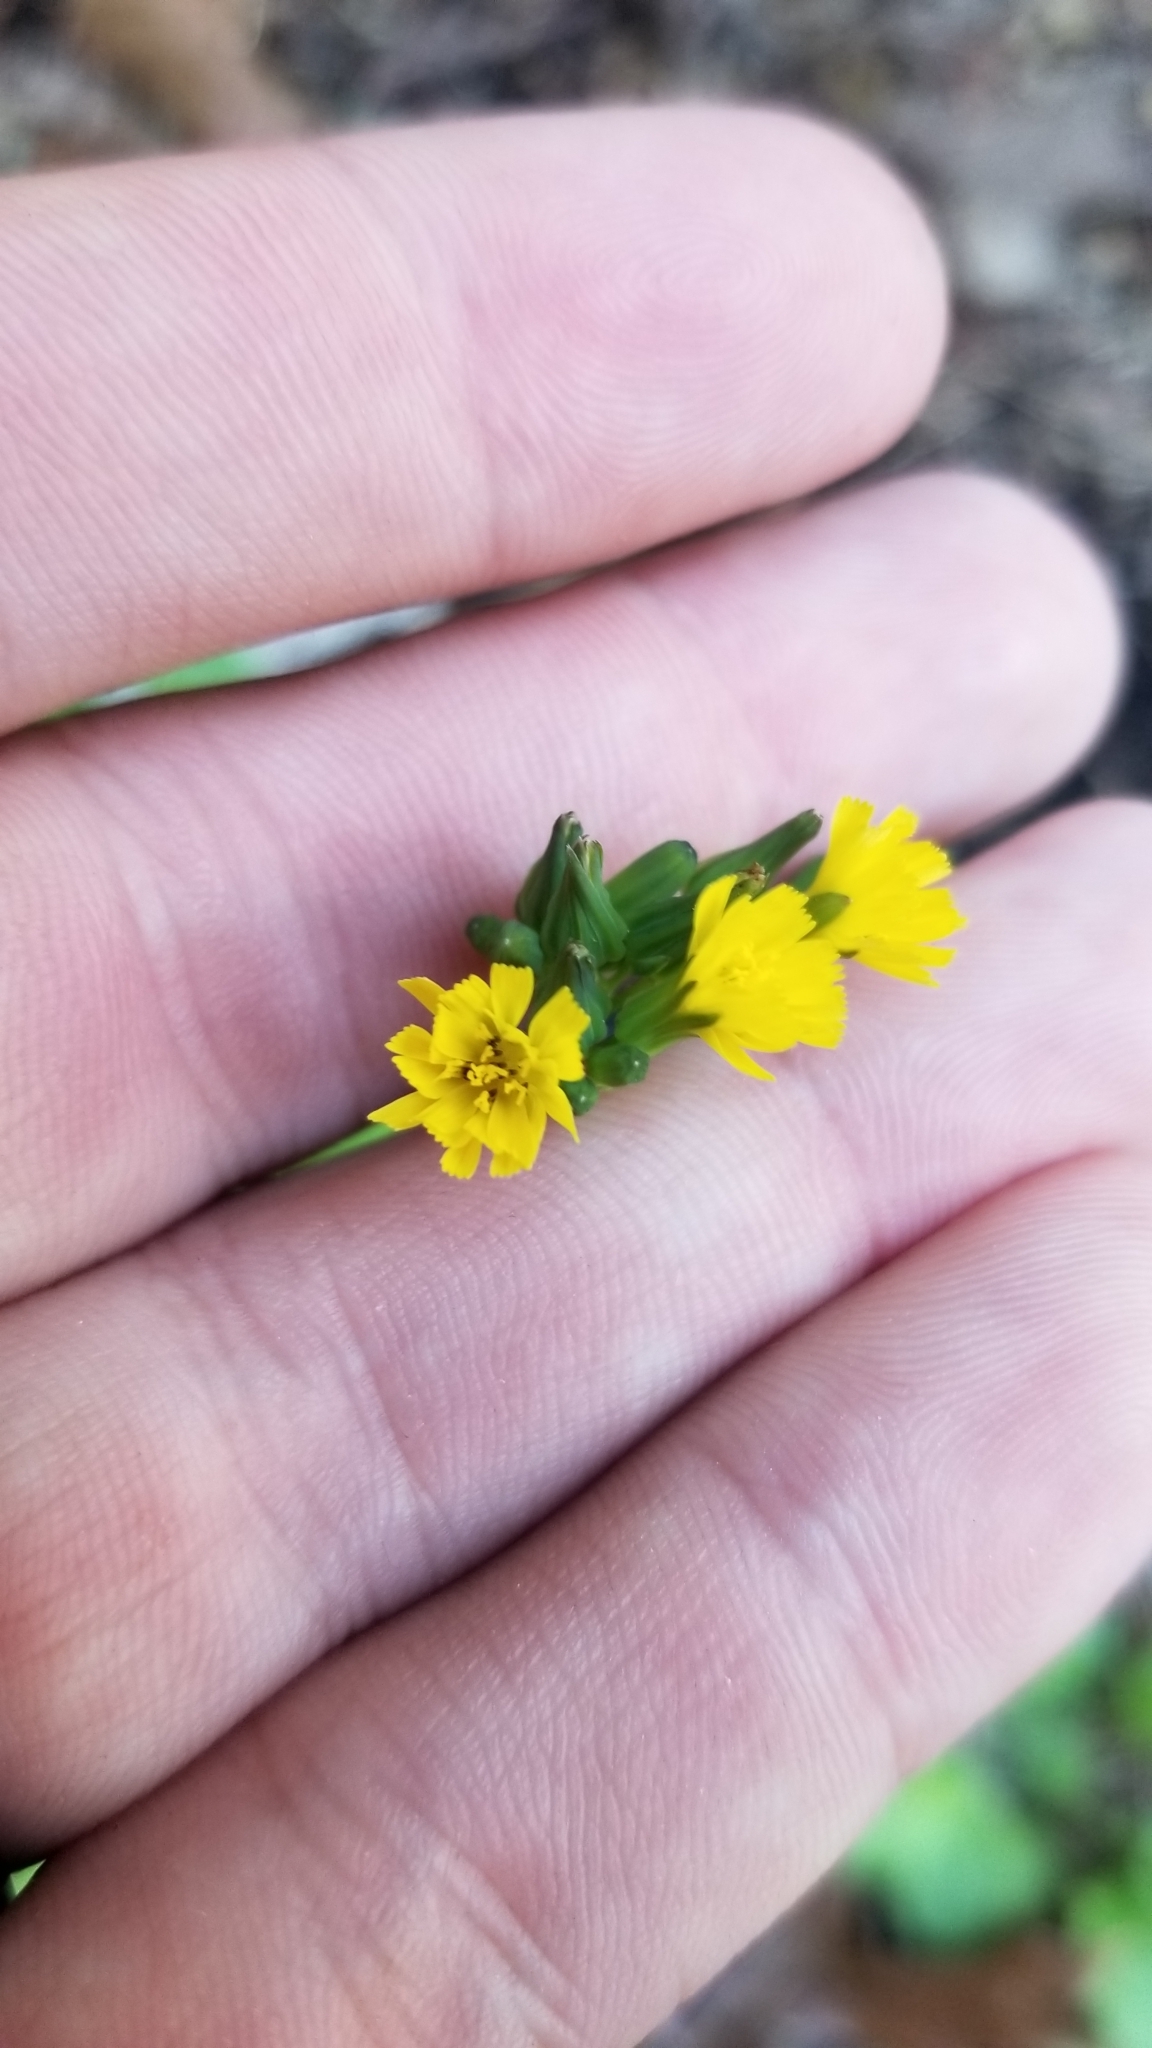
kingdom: Plantae
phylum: Tracheophyta
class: Magnoliopsida
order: Asterales
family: Asteraceae
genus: Youngia
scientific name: Youngia japonica
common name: Oriental false hawksbeard
